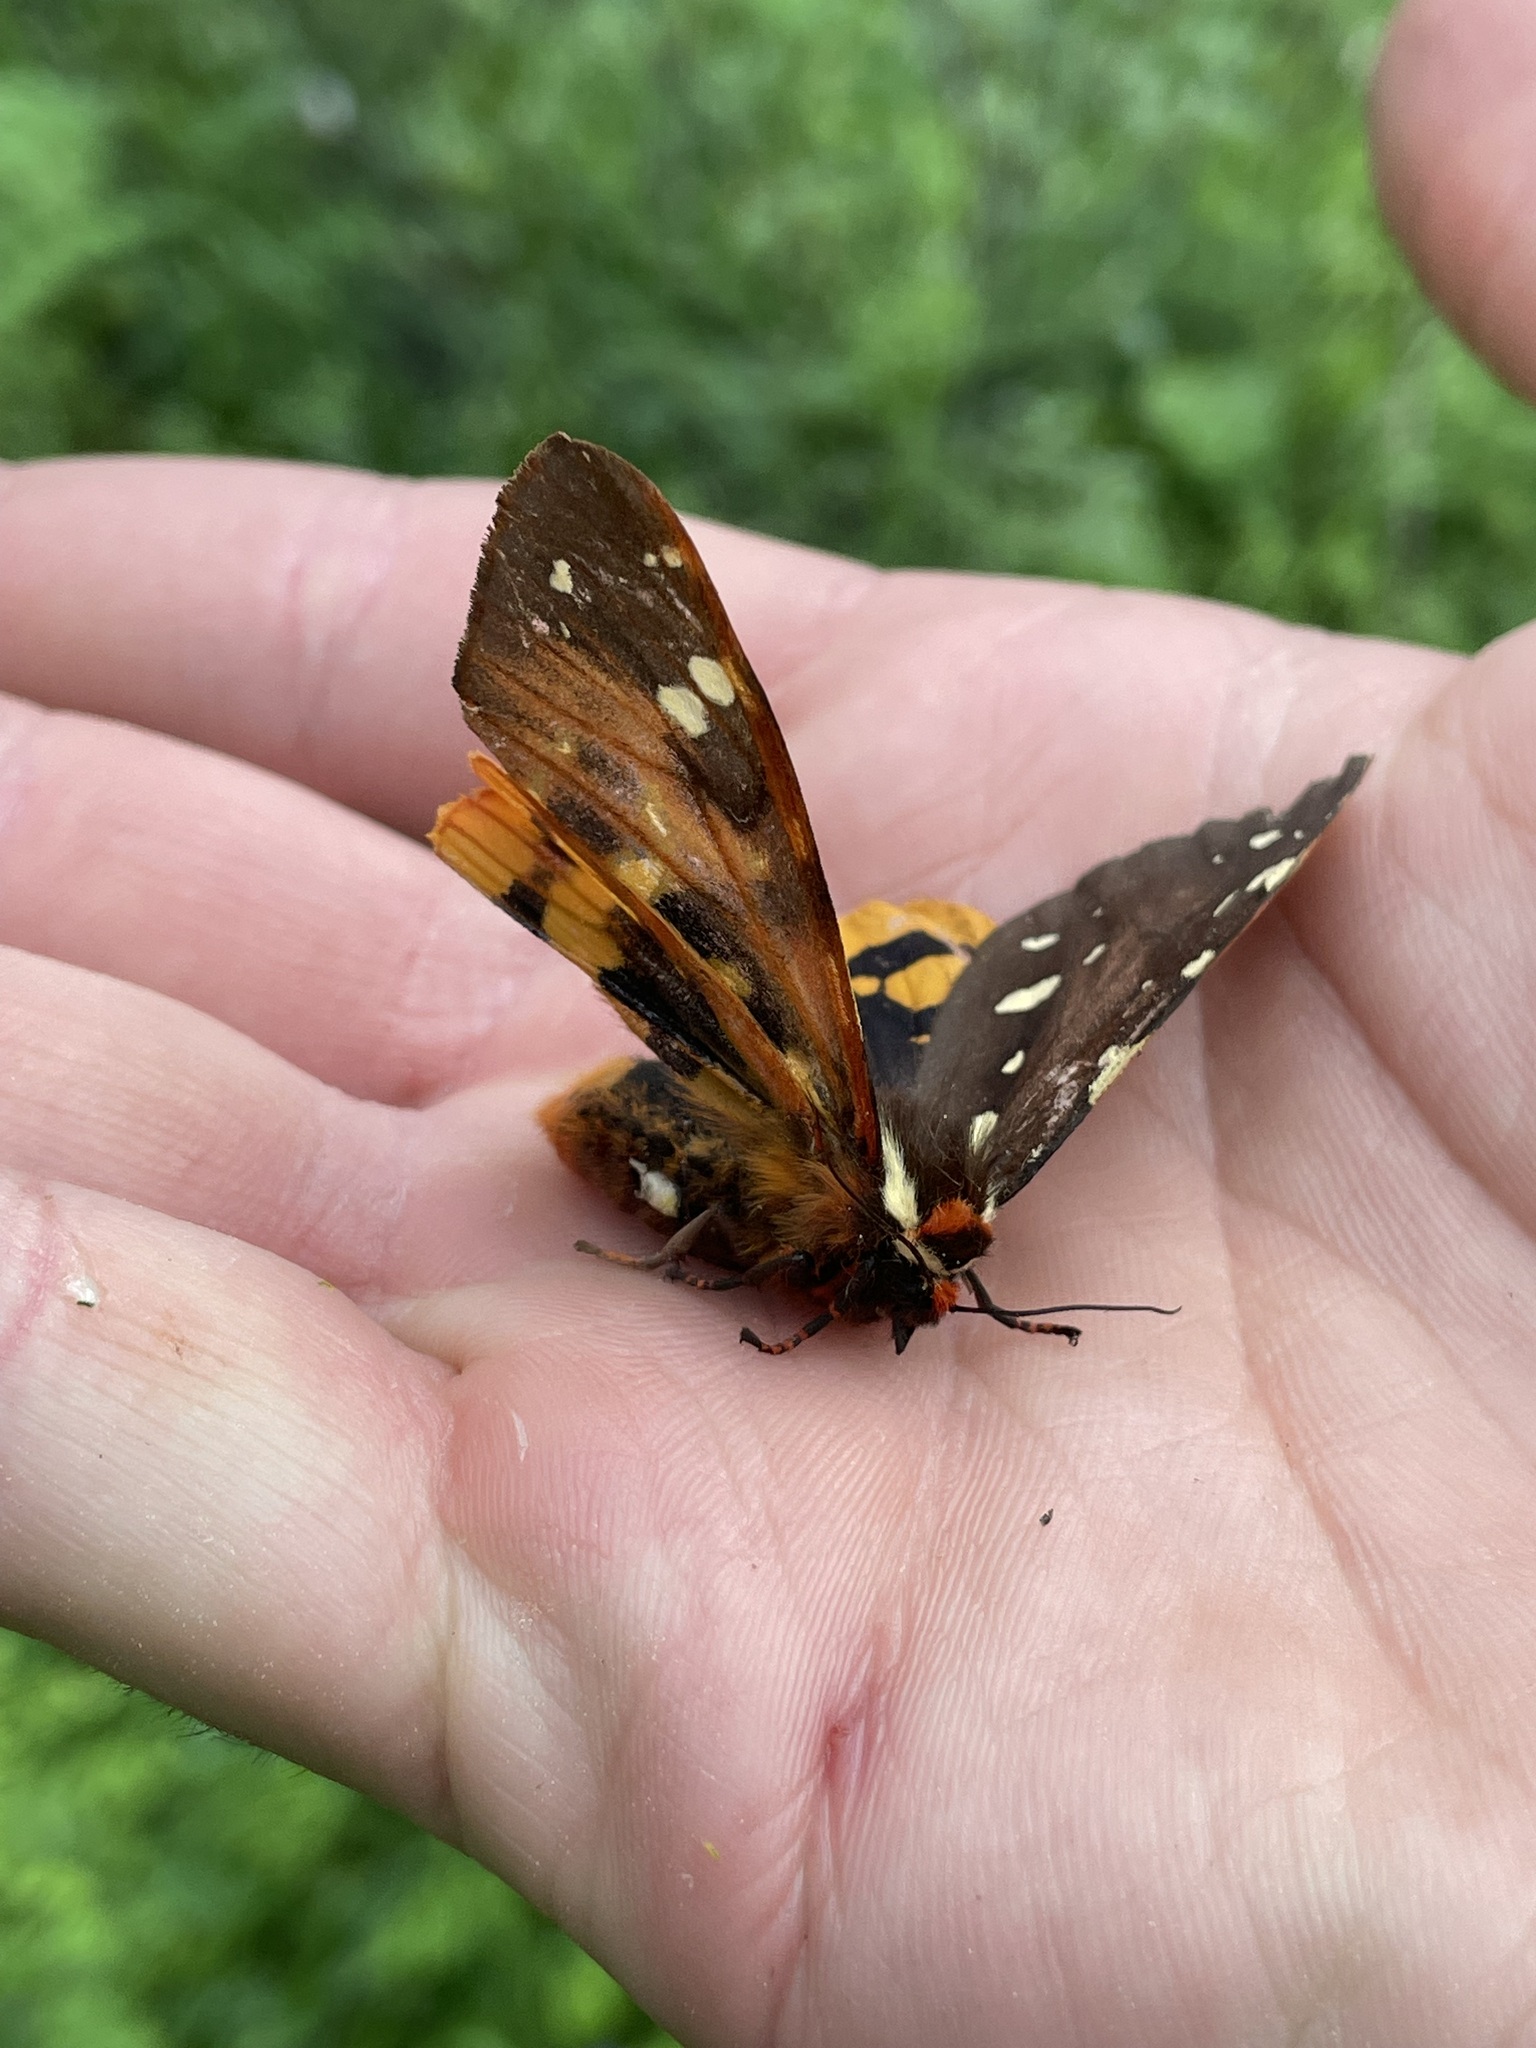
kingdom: Animalia
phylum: Arthropoda
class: Insecta
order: Lepidoptera
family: Erebidae
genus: Arctia
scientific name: Arctia parthenos
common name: St. lawrence tiger moth
